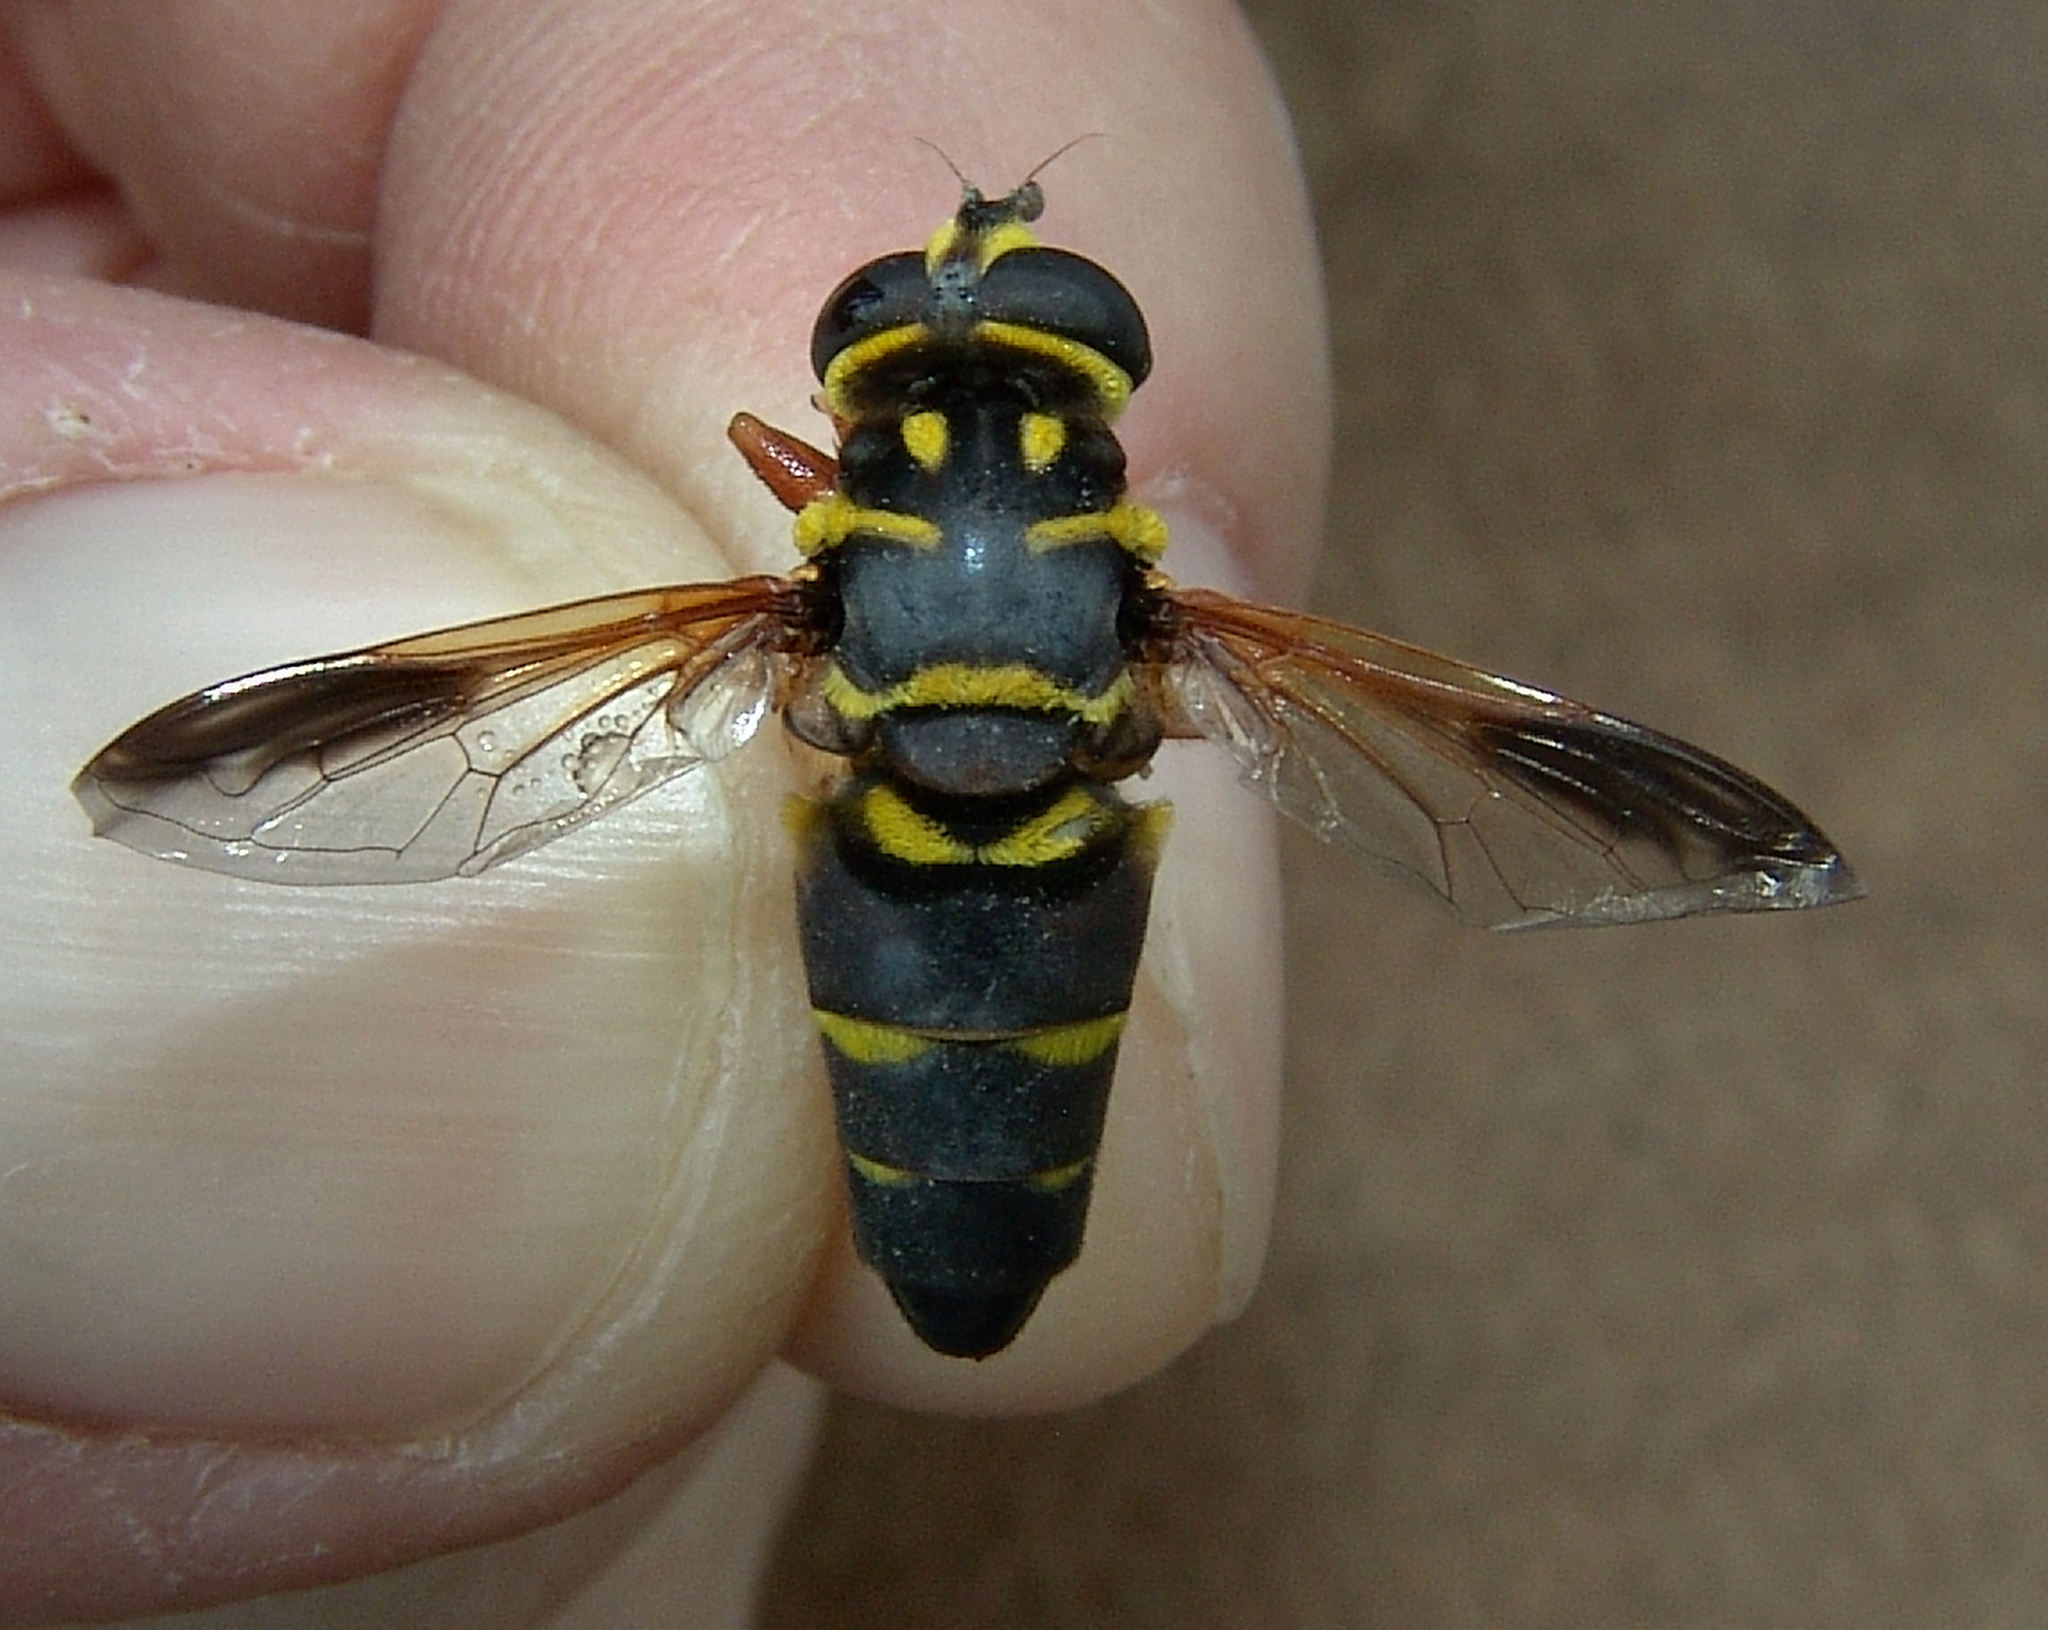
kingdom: Animalia
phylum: Arthropoda
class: Insecta
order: Diptera
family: Syrphidae
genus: Meromacrus
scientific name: Meromacrus acutus
